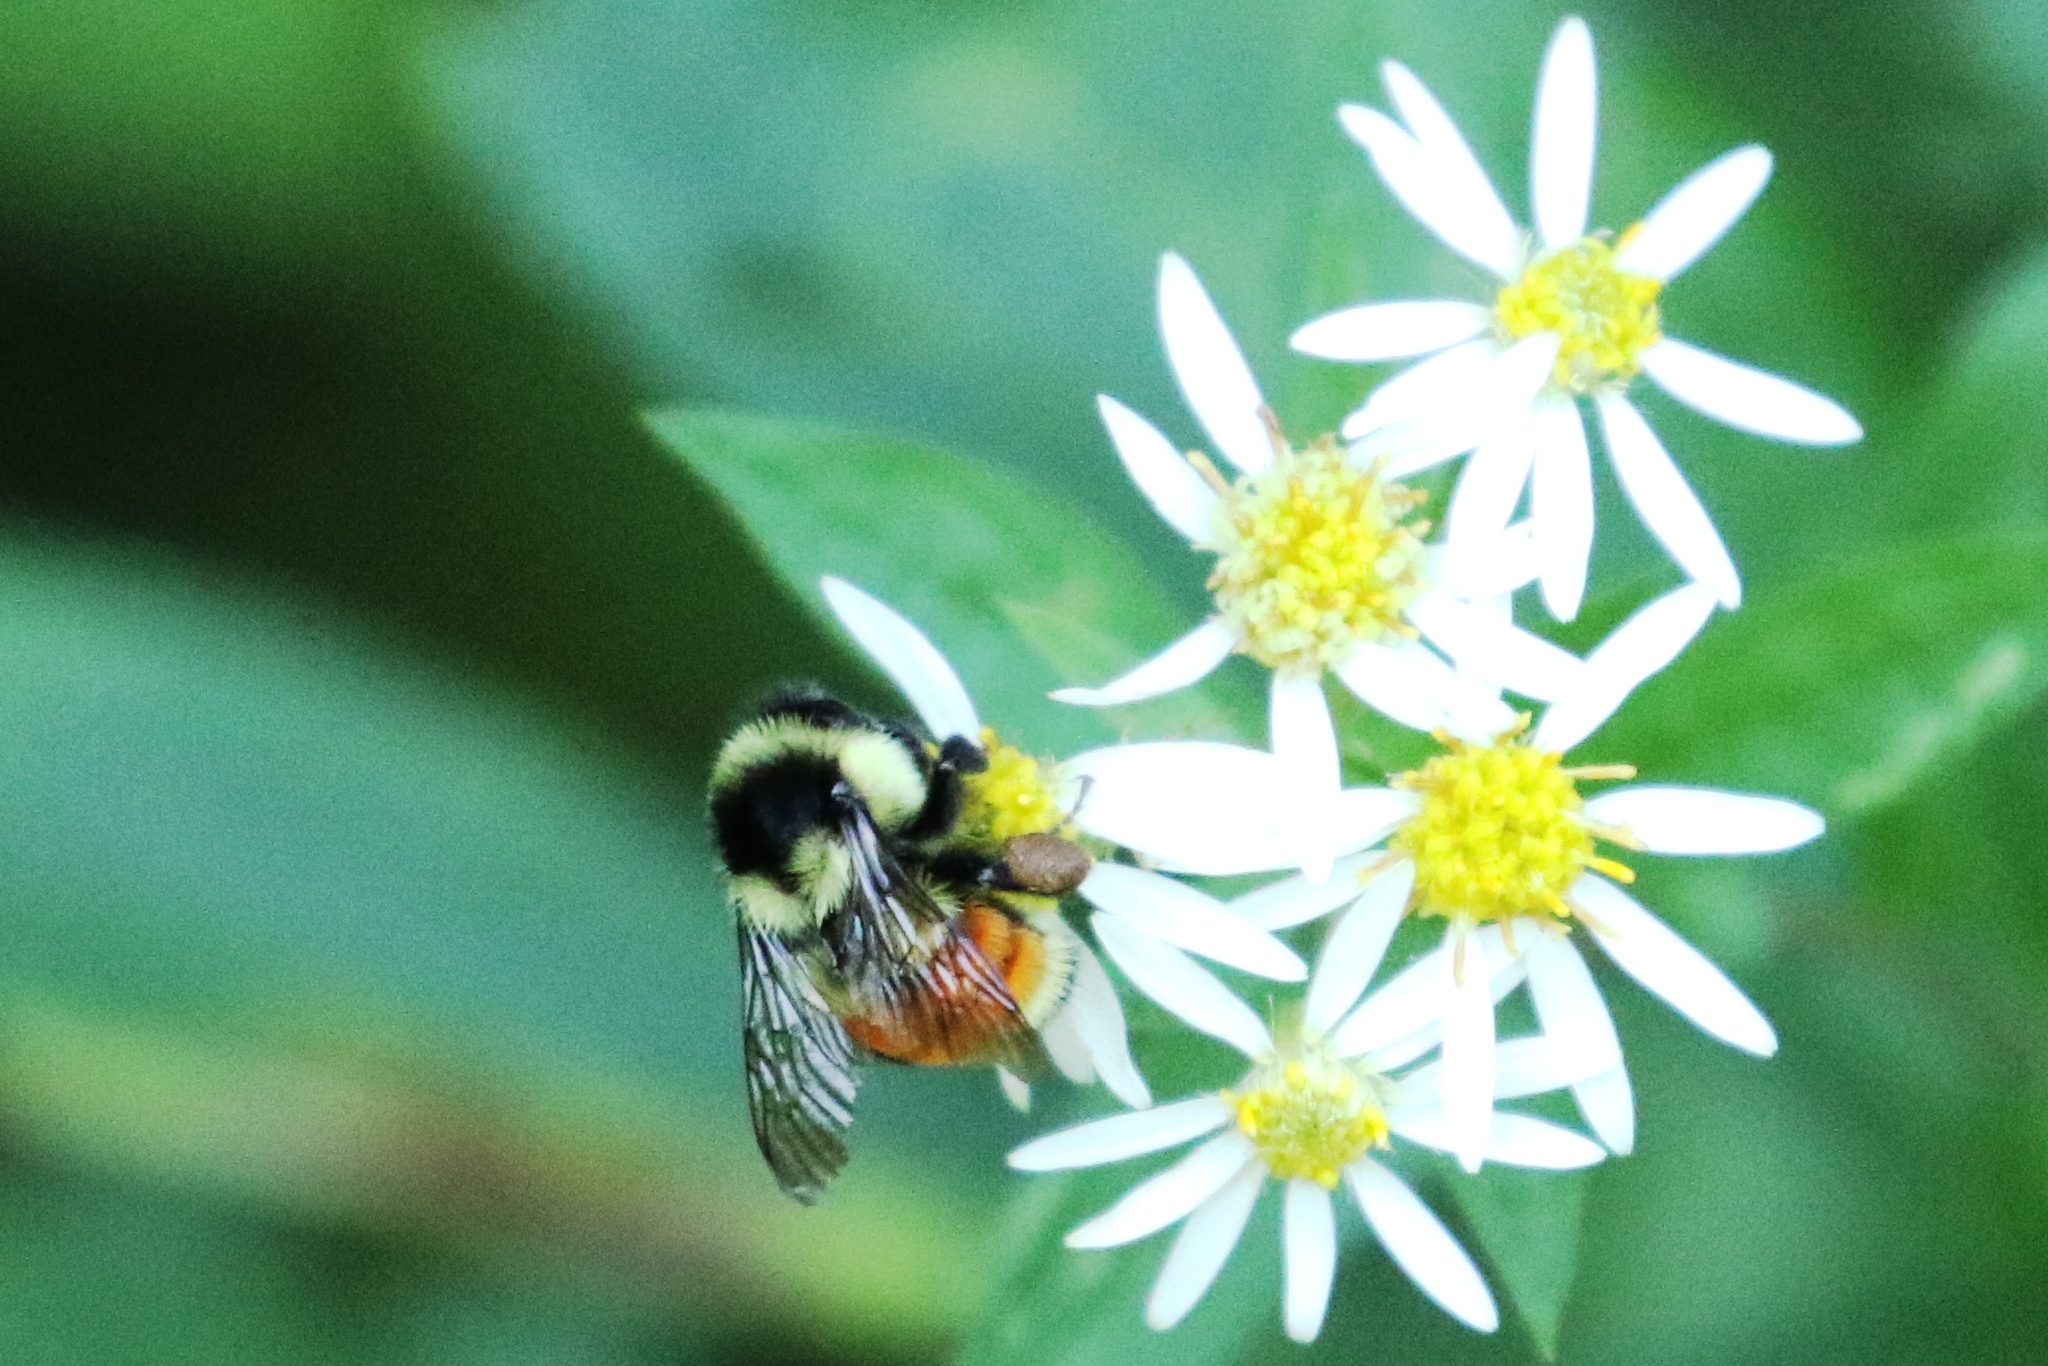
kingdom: Animalia
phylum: Arthropoda
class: Insecta
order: Hymenoptera
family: Apidae
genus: Bombus
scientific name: Bombus ternarius
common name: Tri-colored bumble bee
